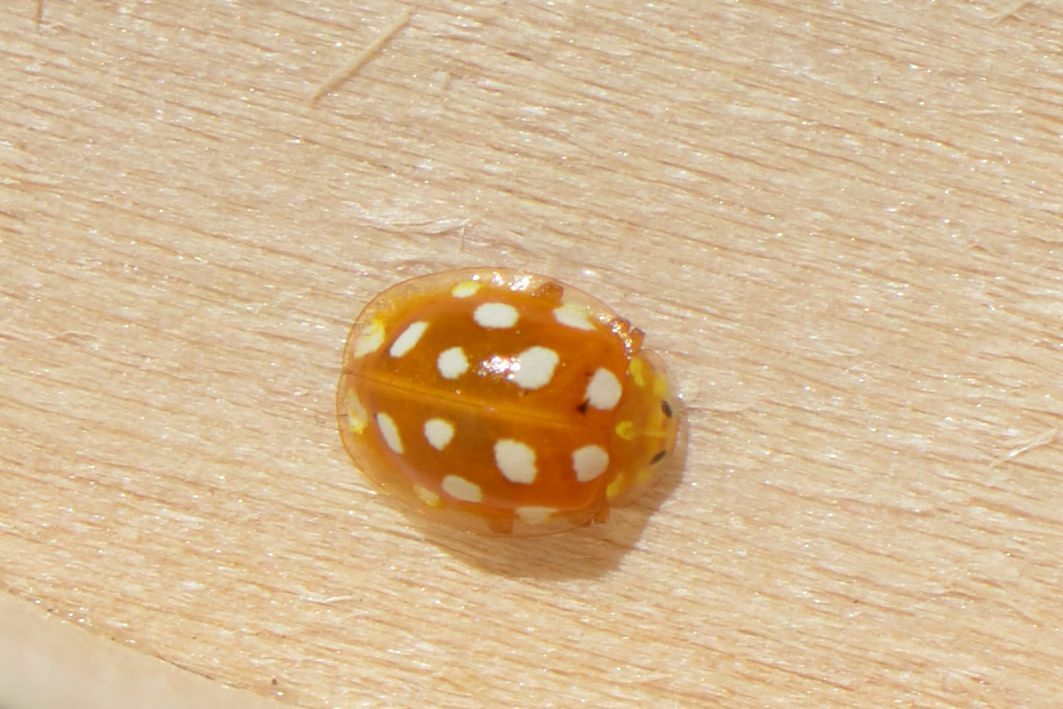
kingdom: Animalia
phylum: Arthropoda
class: Insecta
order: Coleoptera
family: Coccinellidae
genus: Halyzia
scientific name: Halyzia sedecimguttata
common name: Orange ladybird
